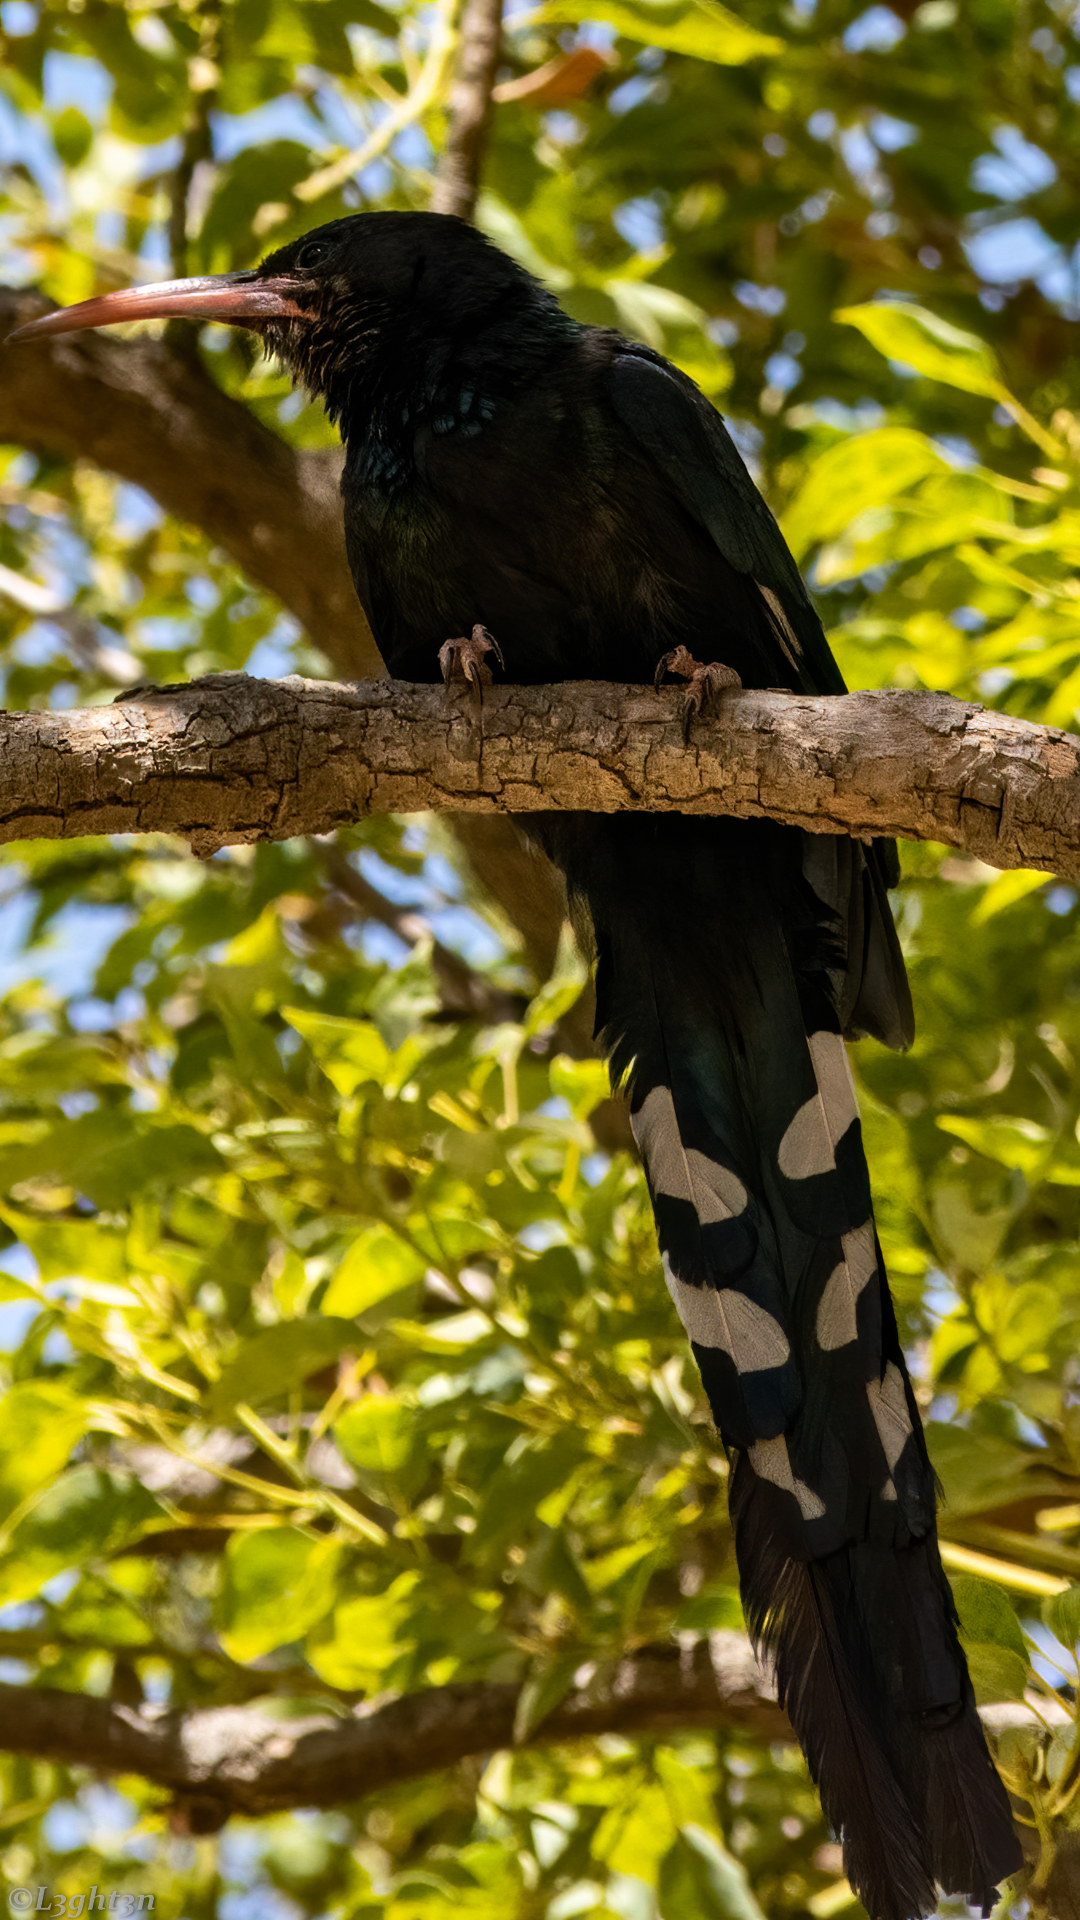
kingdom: Animalia
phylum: Chordata
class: Aves
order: Bucerotiformes
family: Phoeniculidae
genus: Phoeniculus
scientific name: Phoeniculus purpureus
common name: Green woodhoopoe
